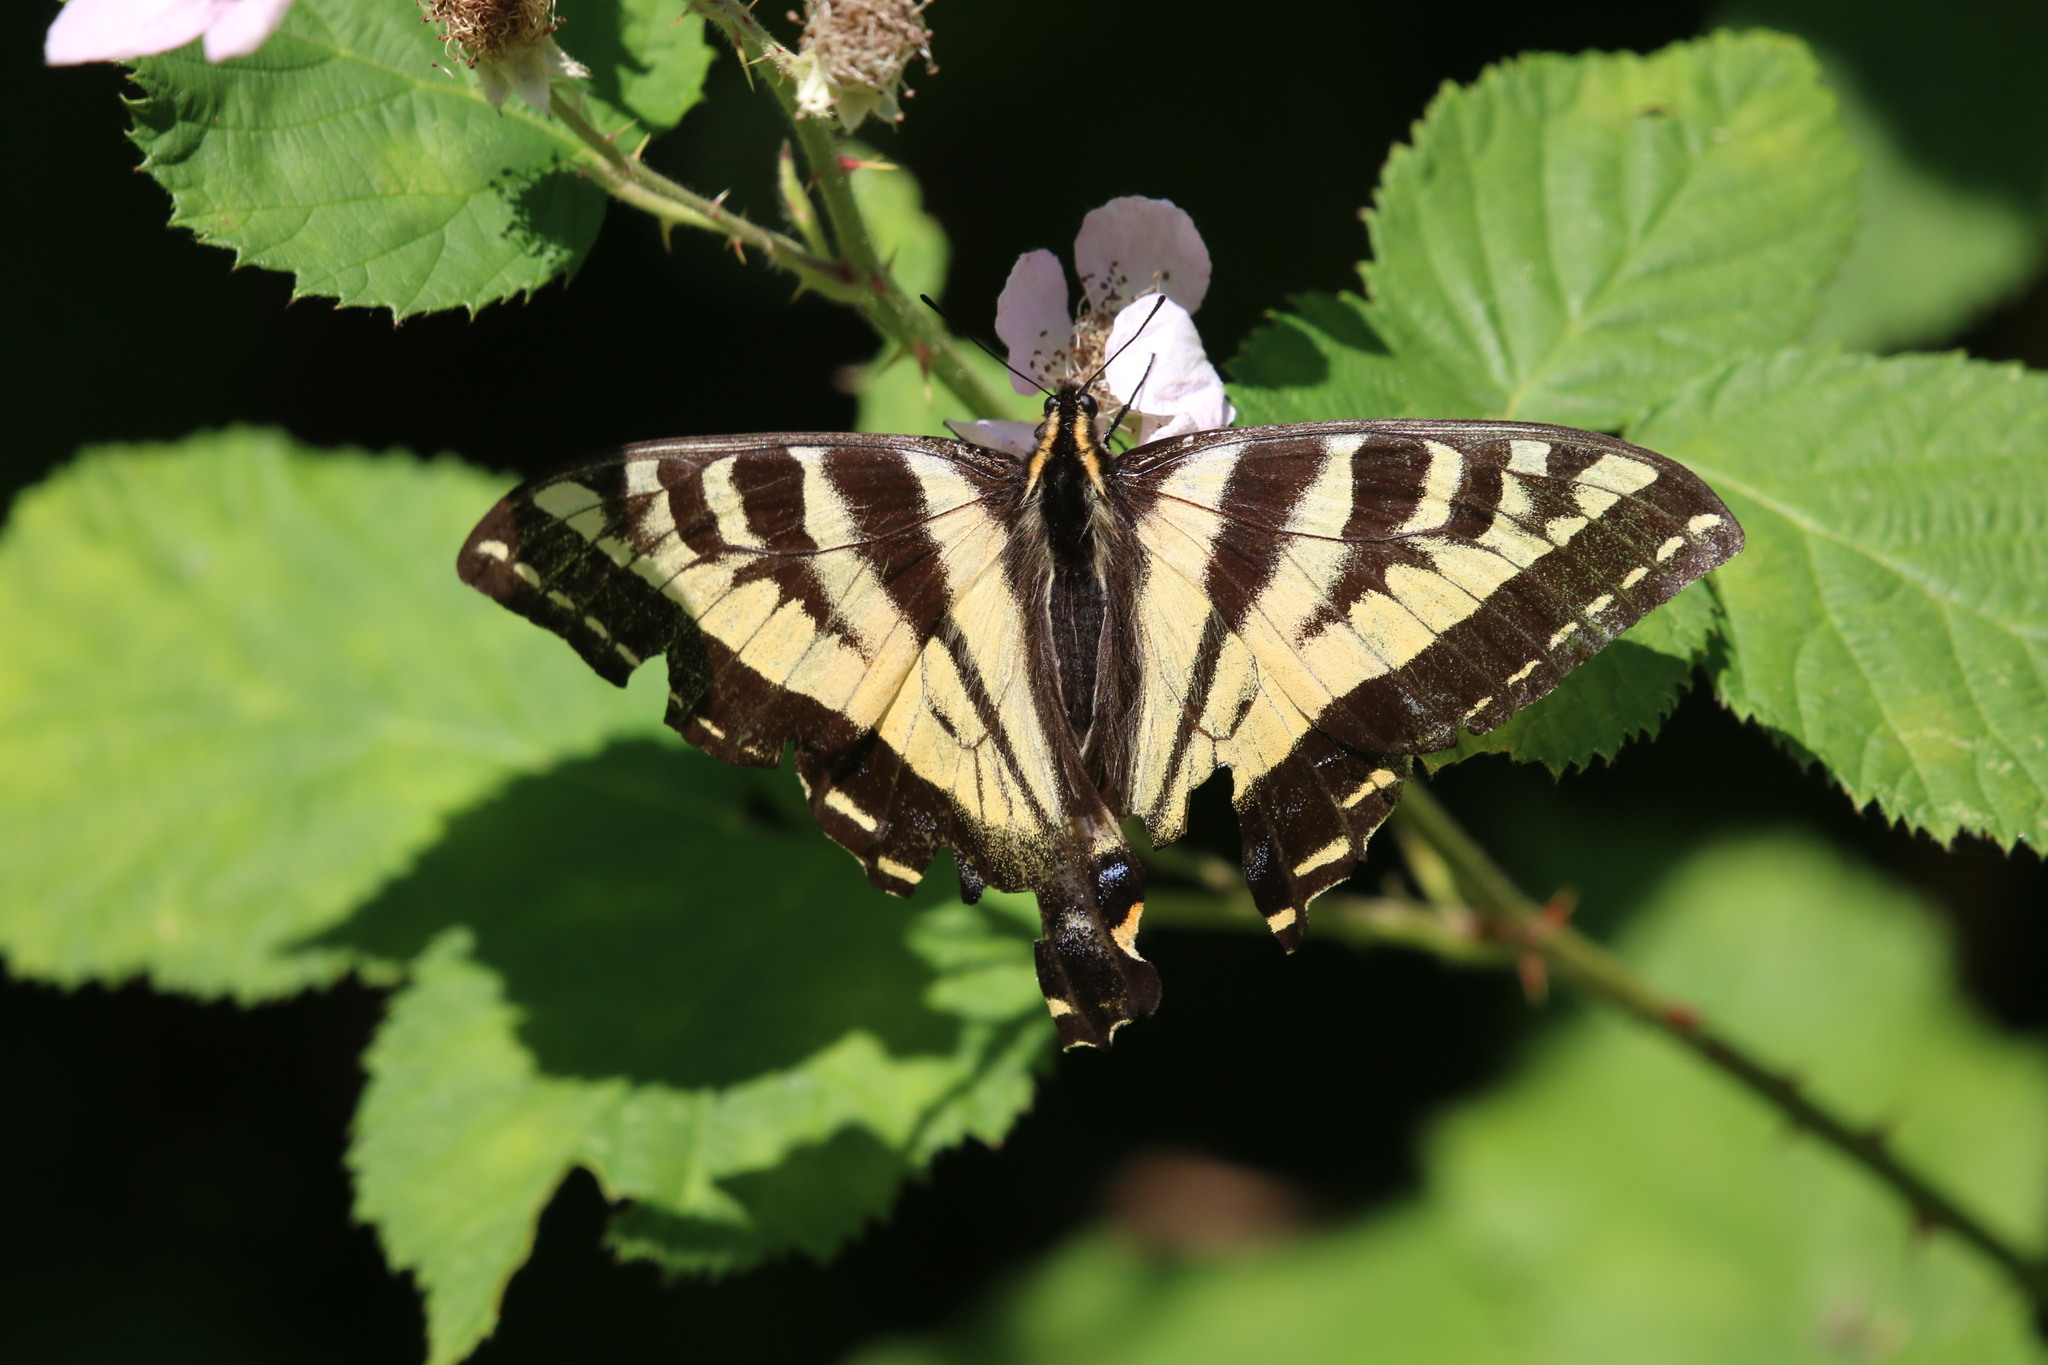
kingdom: Animalia
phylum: Arthropoda
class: Insecta
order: Lepidoptera
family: Papilionidae
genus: Papilio
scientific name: Papilio rutulus
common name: Western tiger swallowtail
